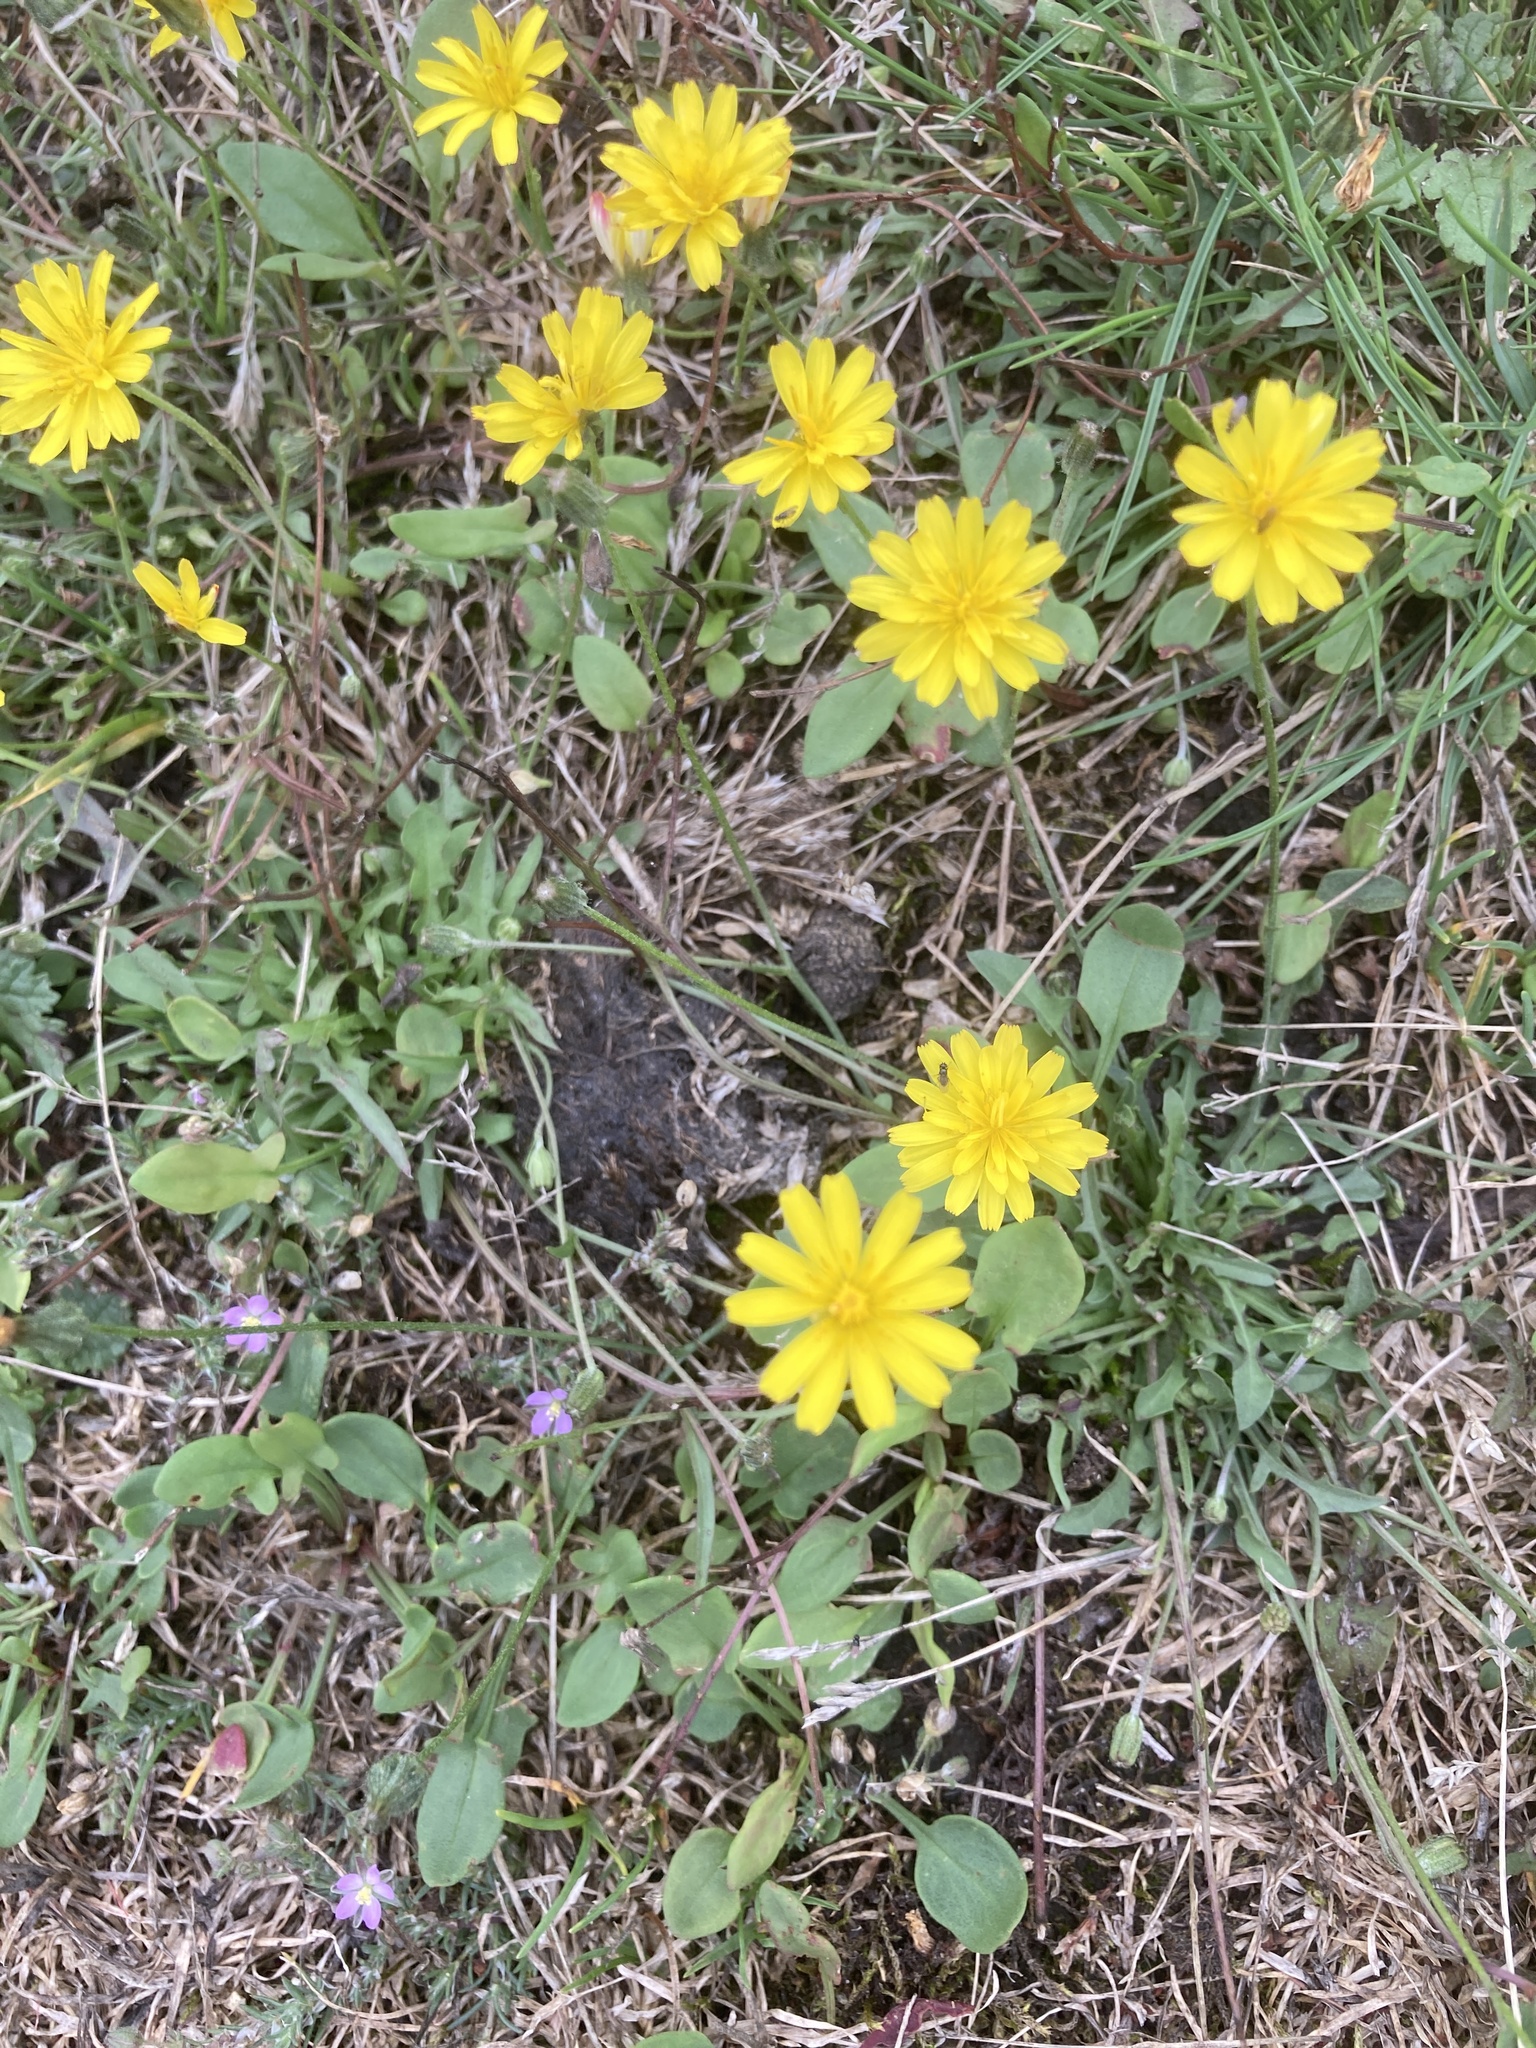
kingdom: Plantae
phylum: Tracheophyta
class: Magnoliopsida
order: Asterales
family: Asteraceae
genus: Lapsana
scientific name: Lapsana communis
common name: Nipplewort
